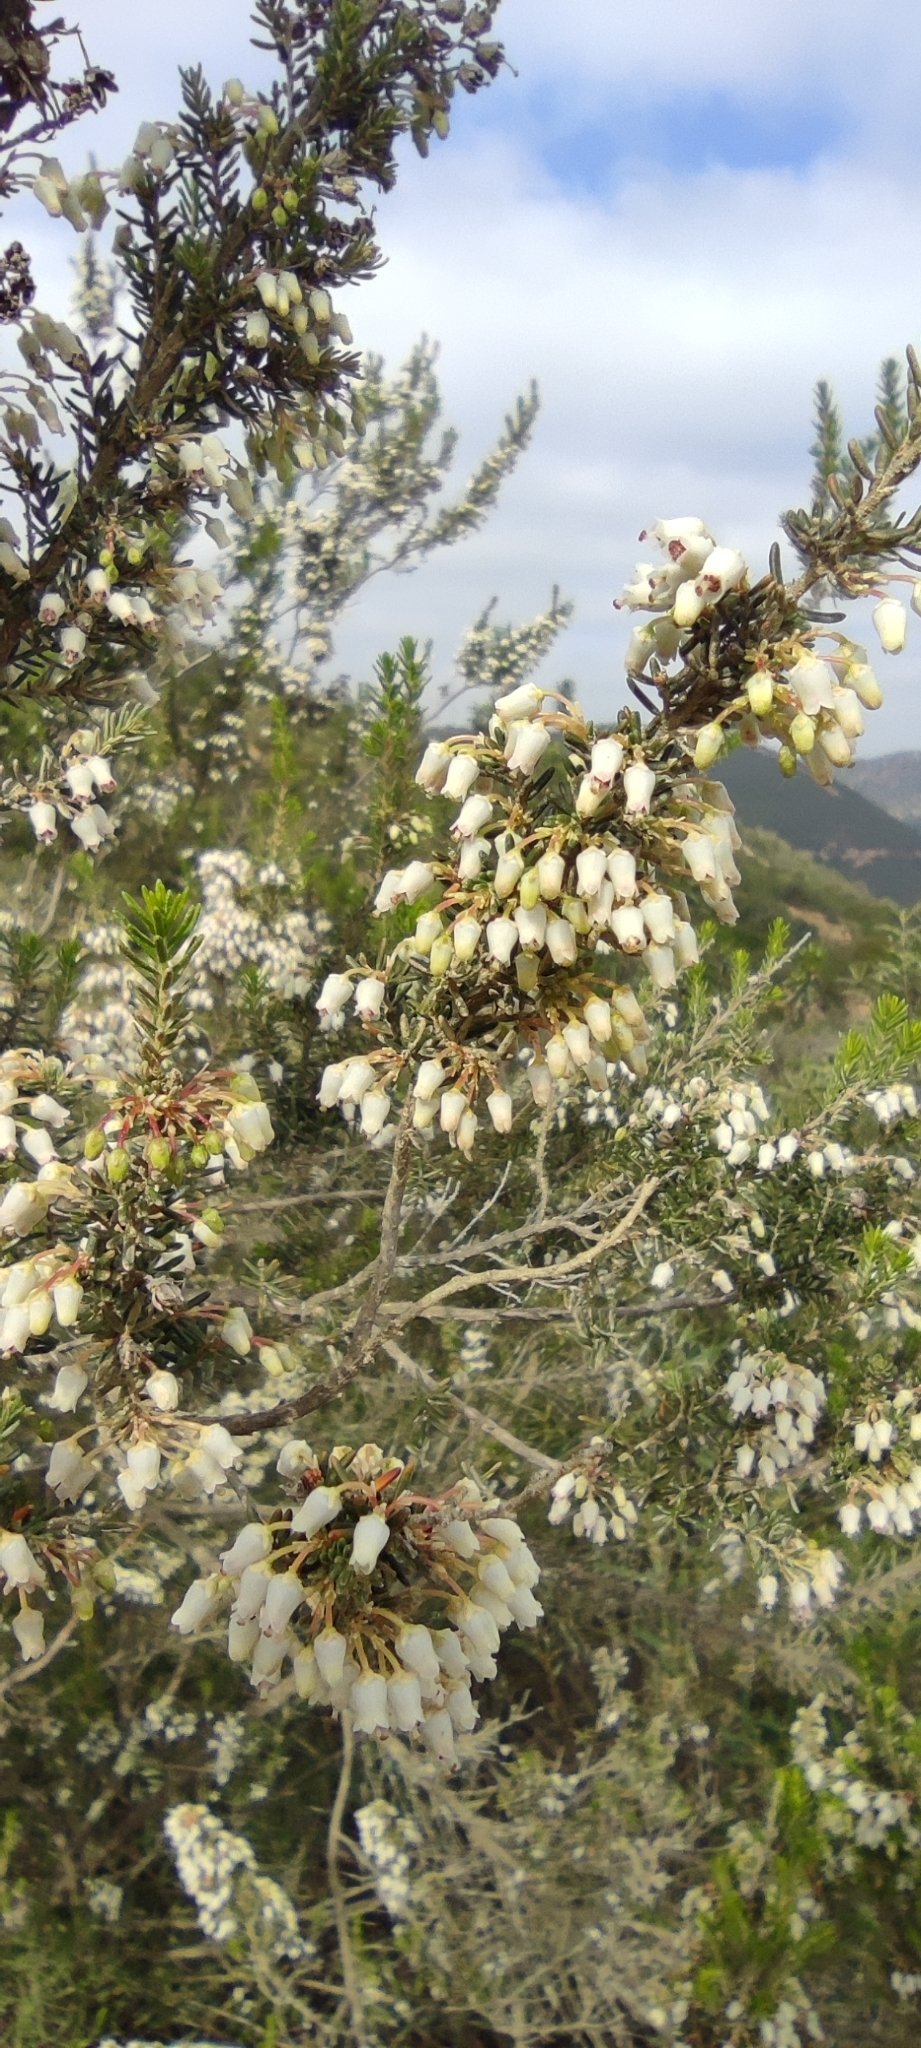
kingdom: Plantae
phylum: Tracheophyta
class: Magnoliopsida
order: Ericales
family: Ericaceae
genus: Erica
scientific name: Erica arborea
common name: Tree heath
